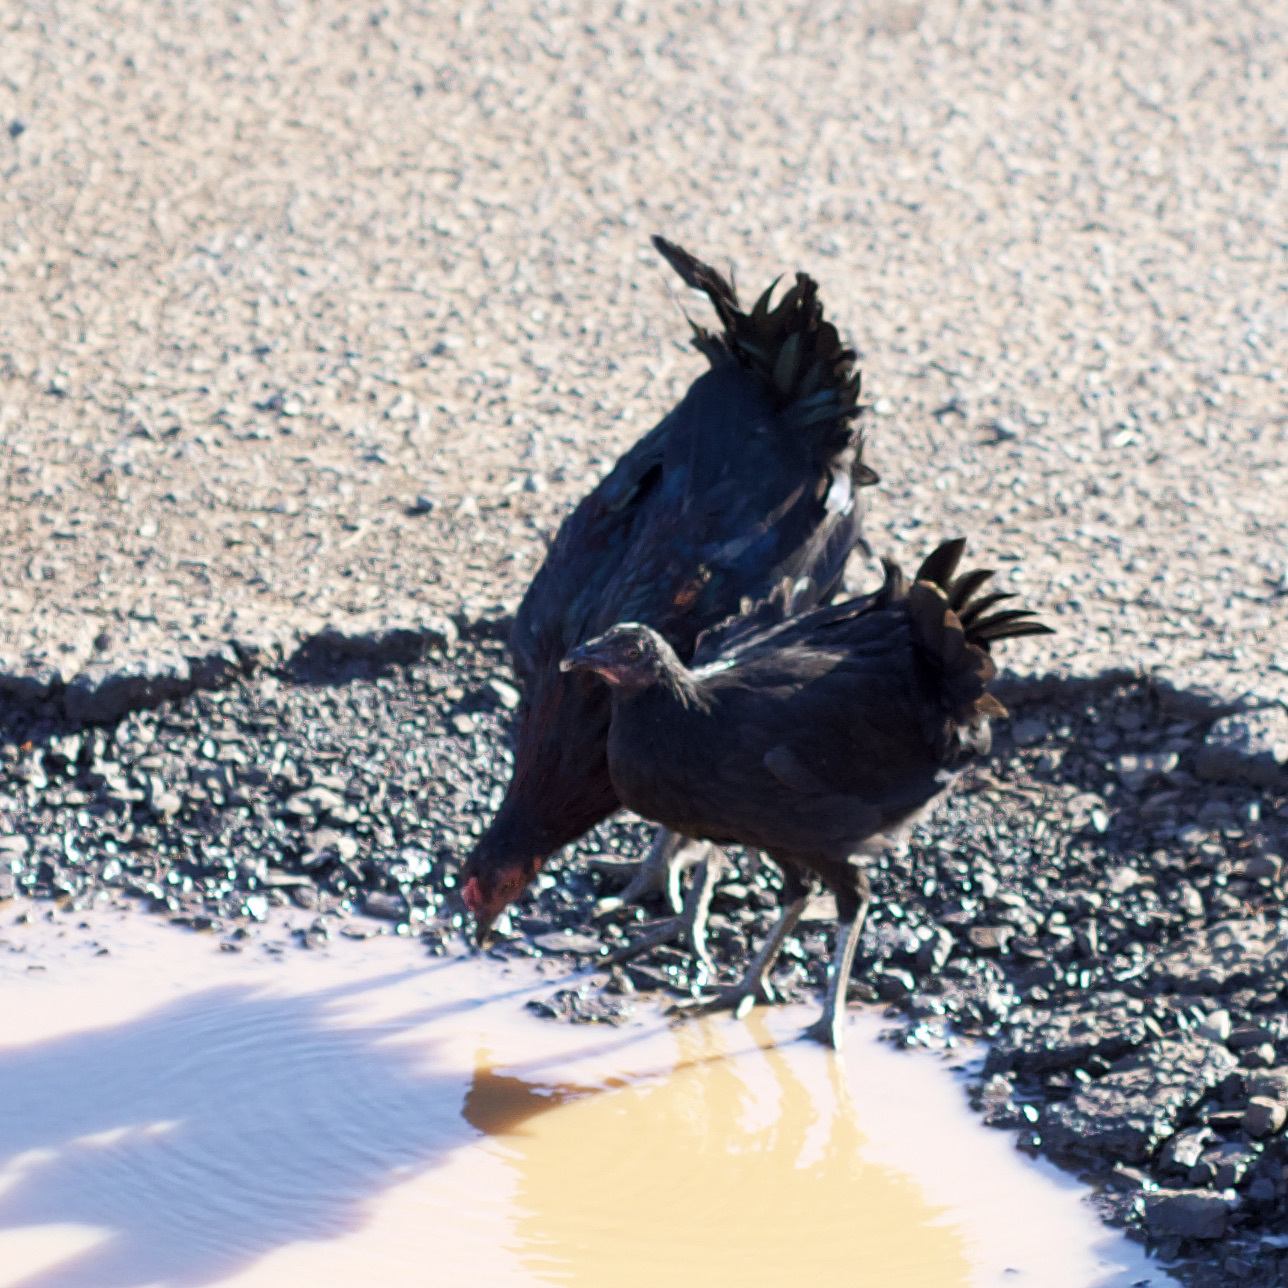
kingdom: Animalia
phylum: Chordata
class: Aves
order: Galliformes
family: Phasianidae
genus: Gallus
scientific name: Gallus gallus
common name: Red junglefowl
